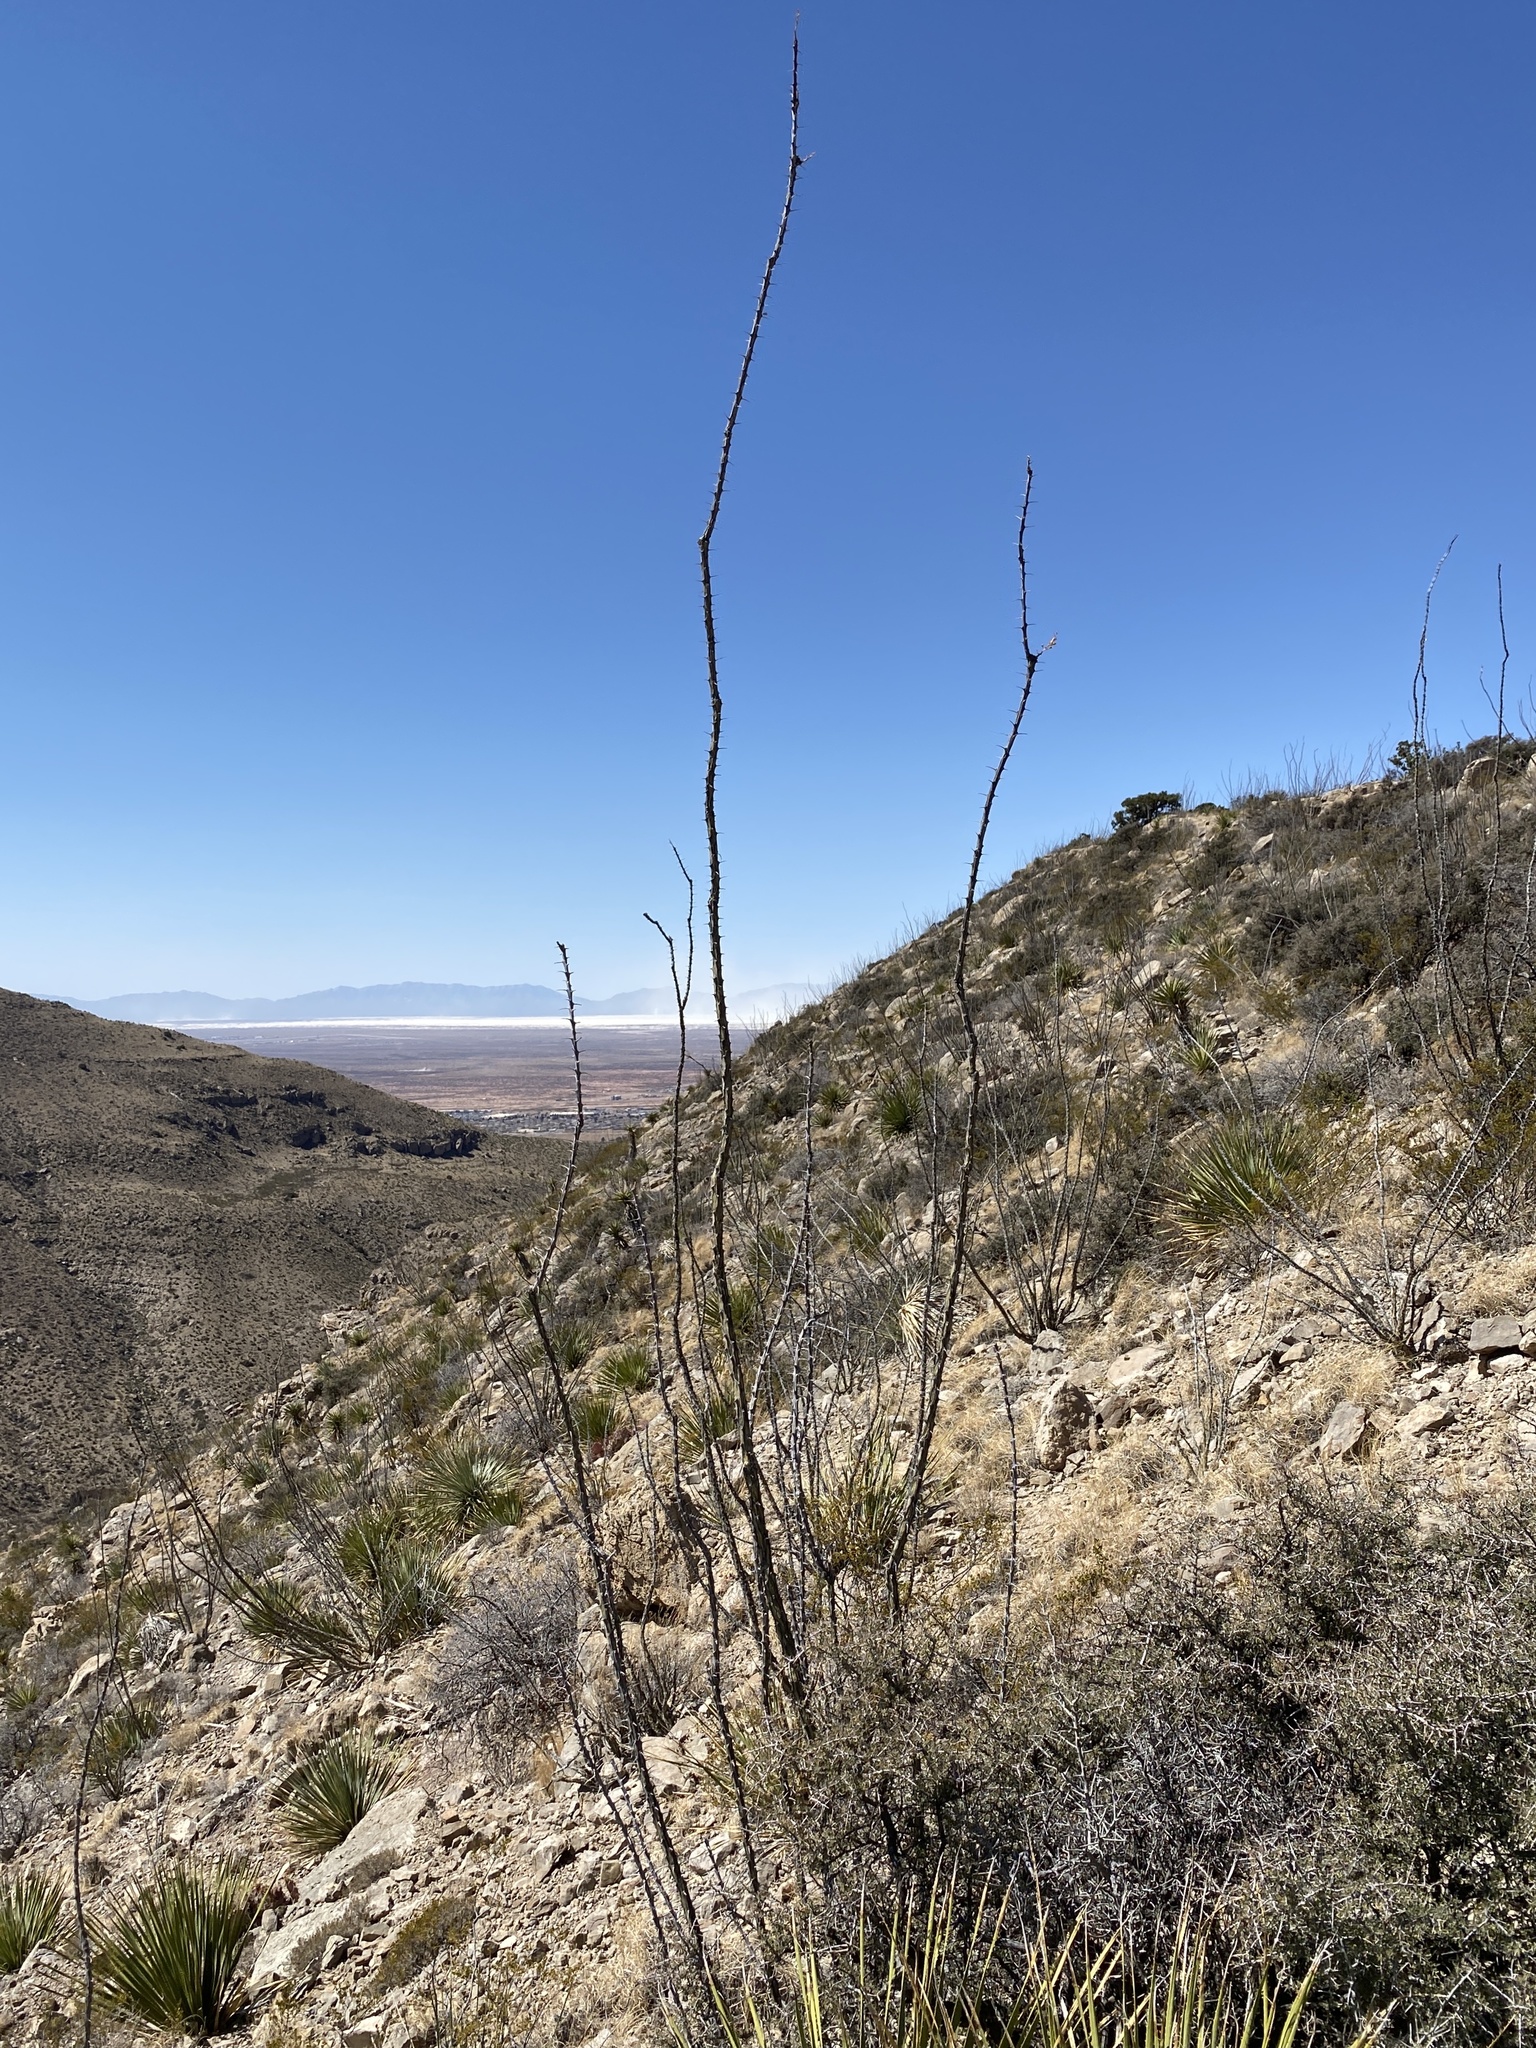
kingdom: Plantae
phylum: Tracheophyta
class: Magnoliopsida
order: Ericales
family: Fouquieriaceae
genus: Fouquieria
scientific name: Fouquieria splendens
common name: Vine-cactus
